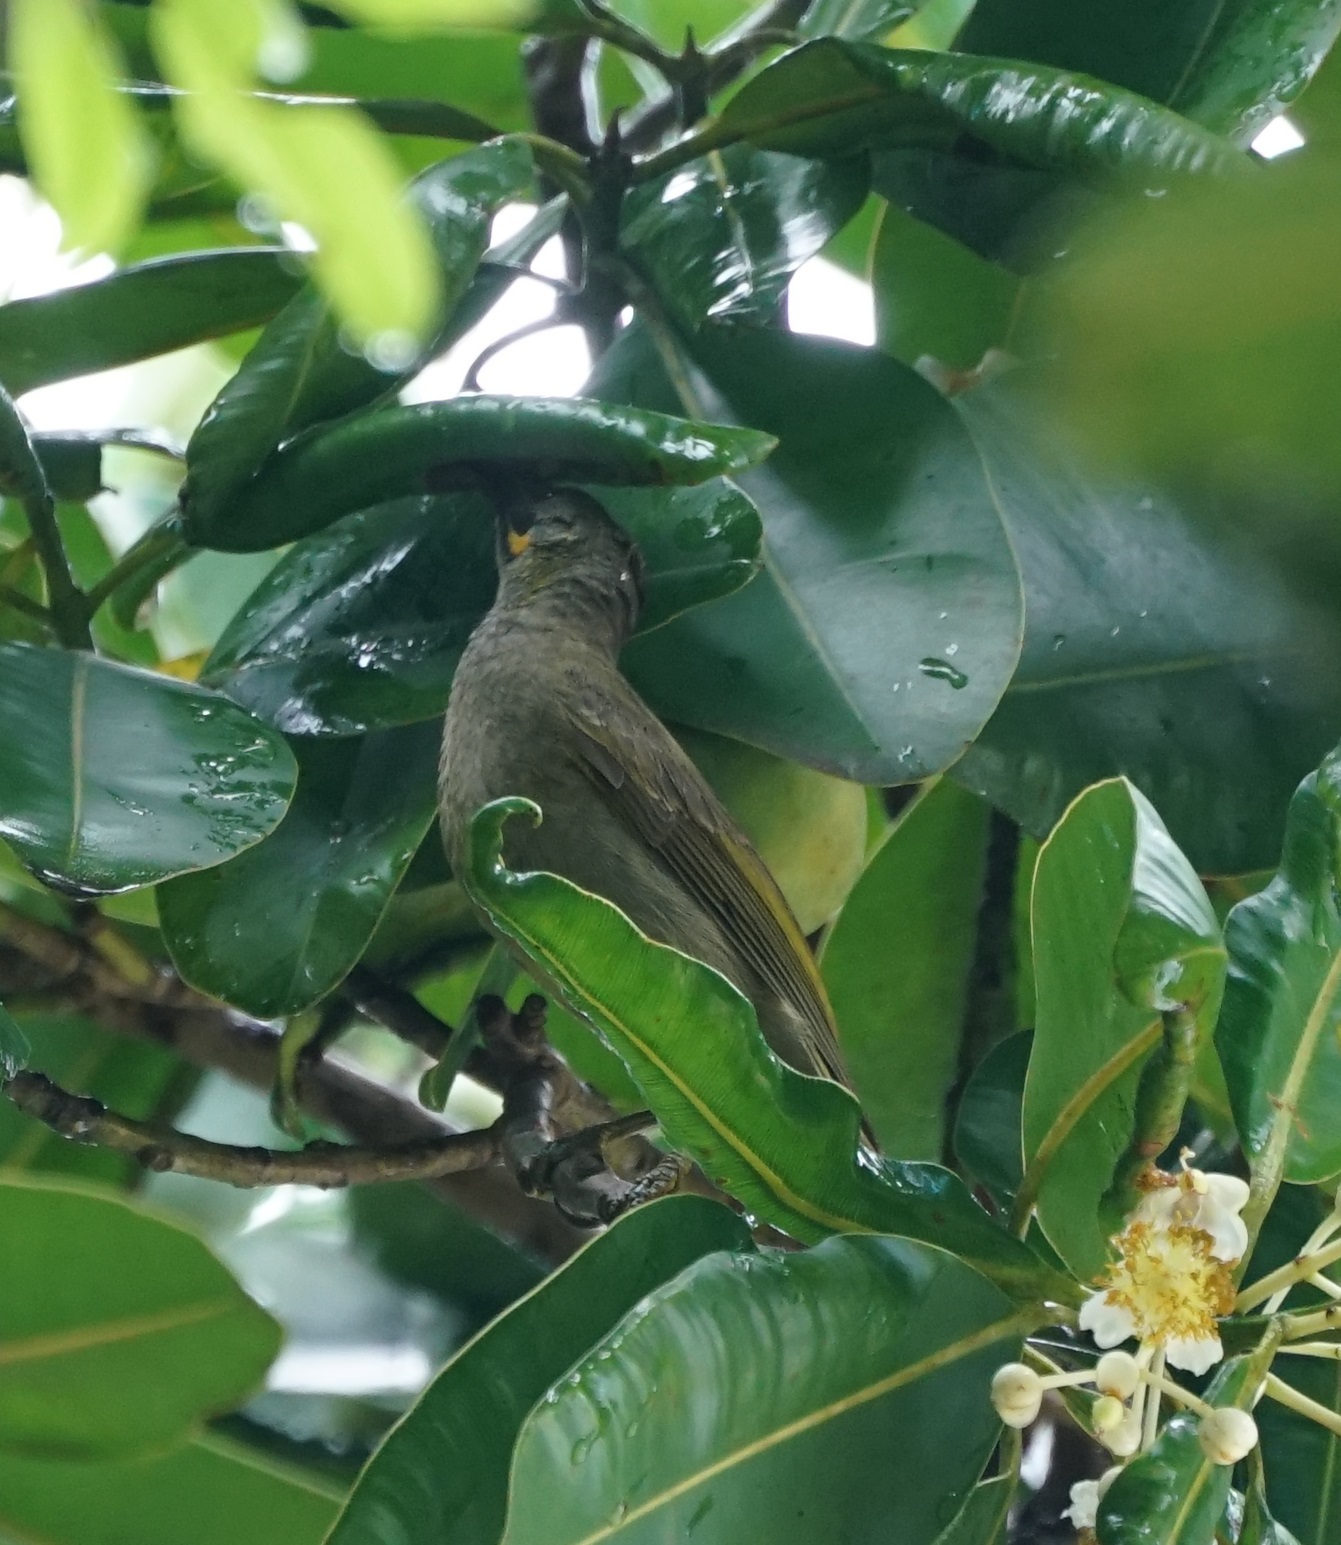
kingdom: Animalia
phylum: Chordata
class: Aves
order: Passeriformes
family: Meliphagidae
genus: Foulehaio
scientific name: Foulehaio procerior
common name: Kikau
